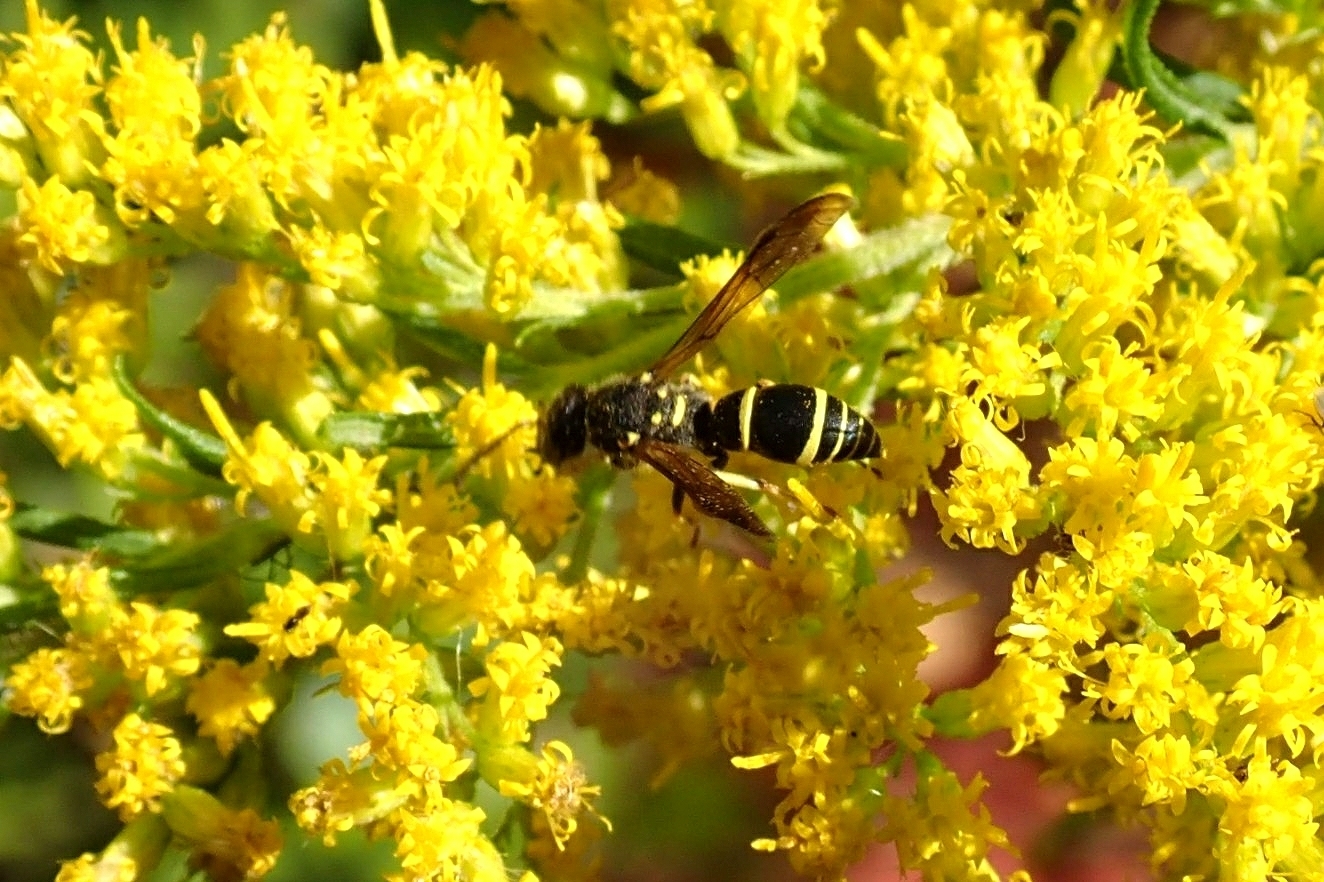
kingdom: Animalia
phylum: Arthropoda
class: Insecta
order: Hymenoptera
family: Vespidae
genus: Ancistrocerus
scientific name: Ancistrocerus adiabatus
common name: Bramble mason wasp
